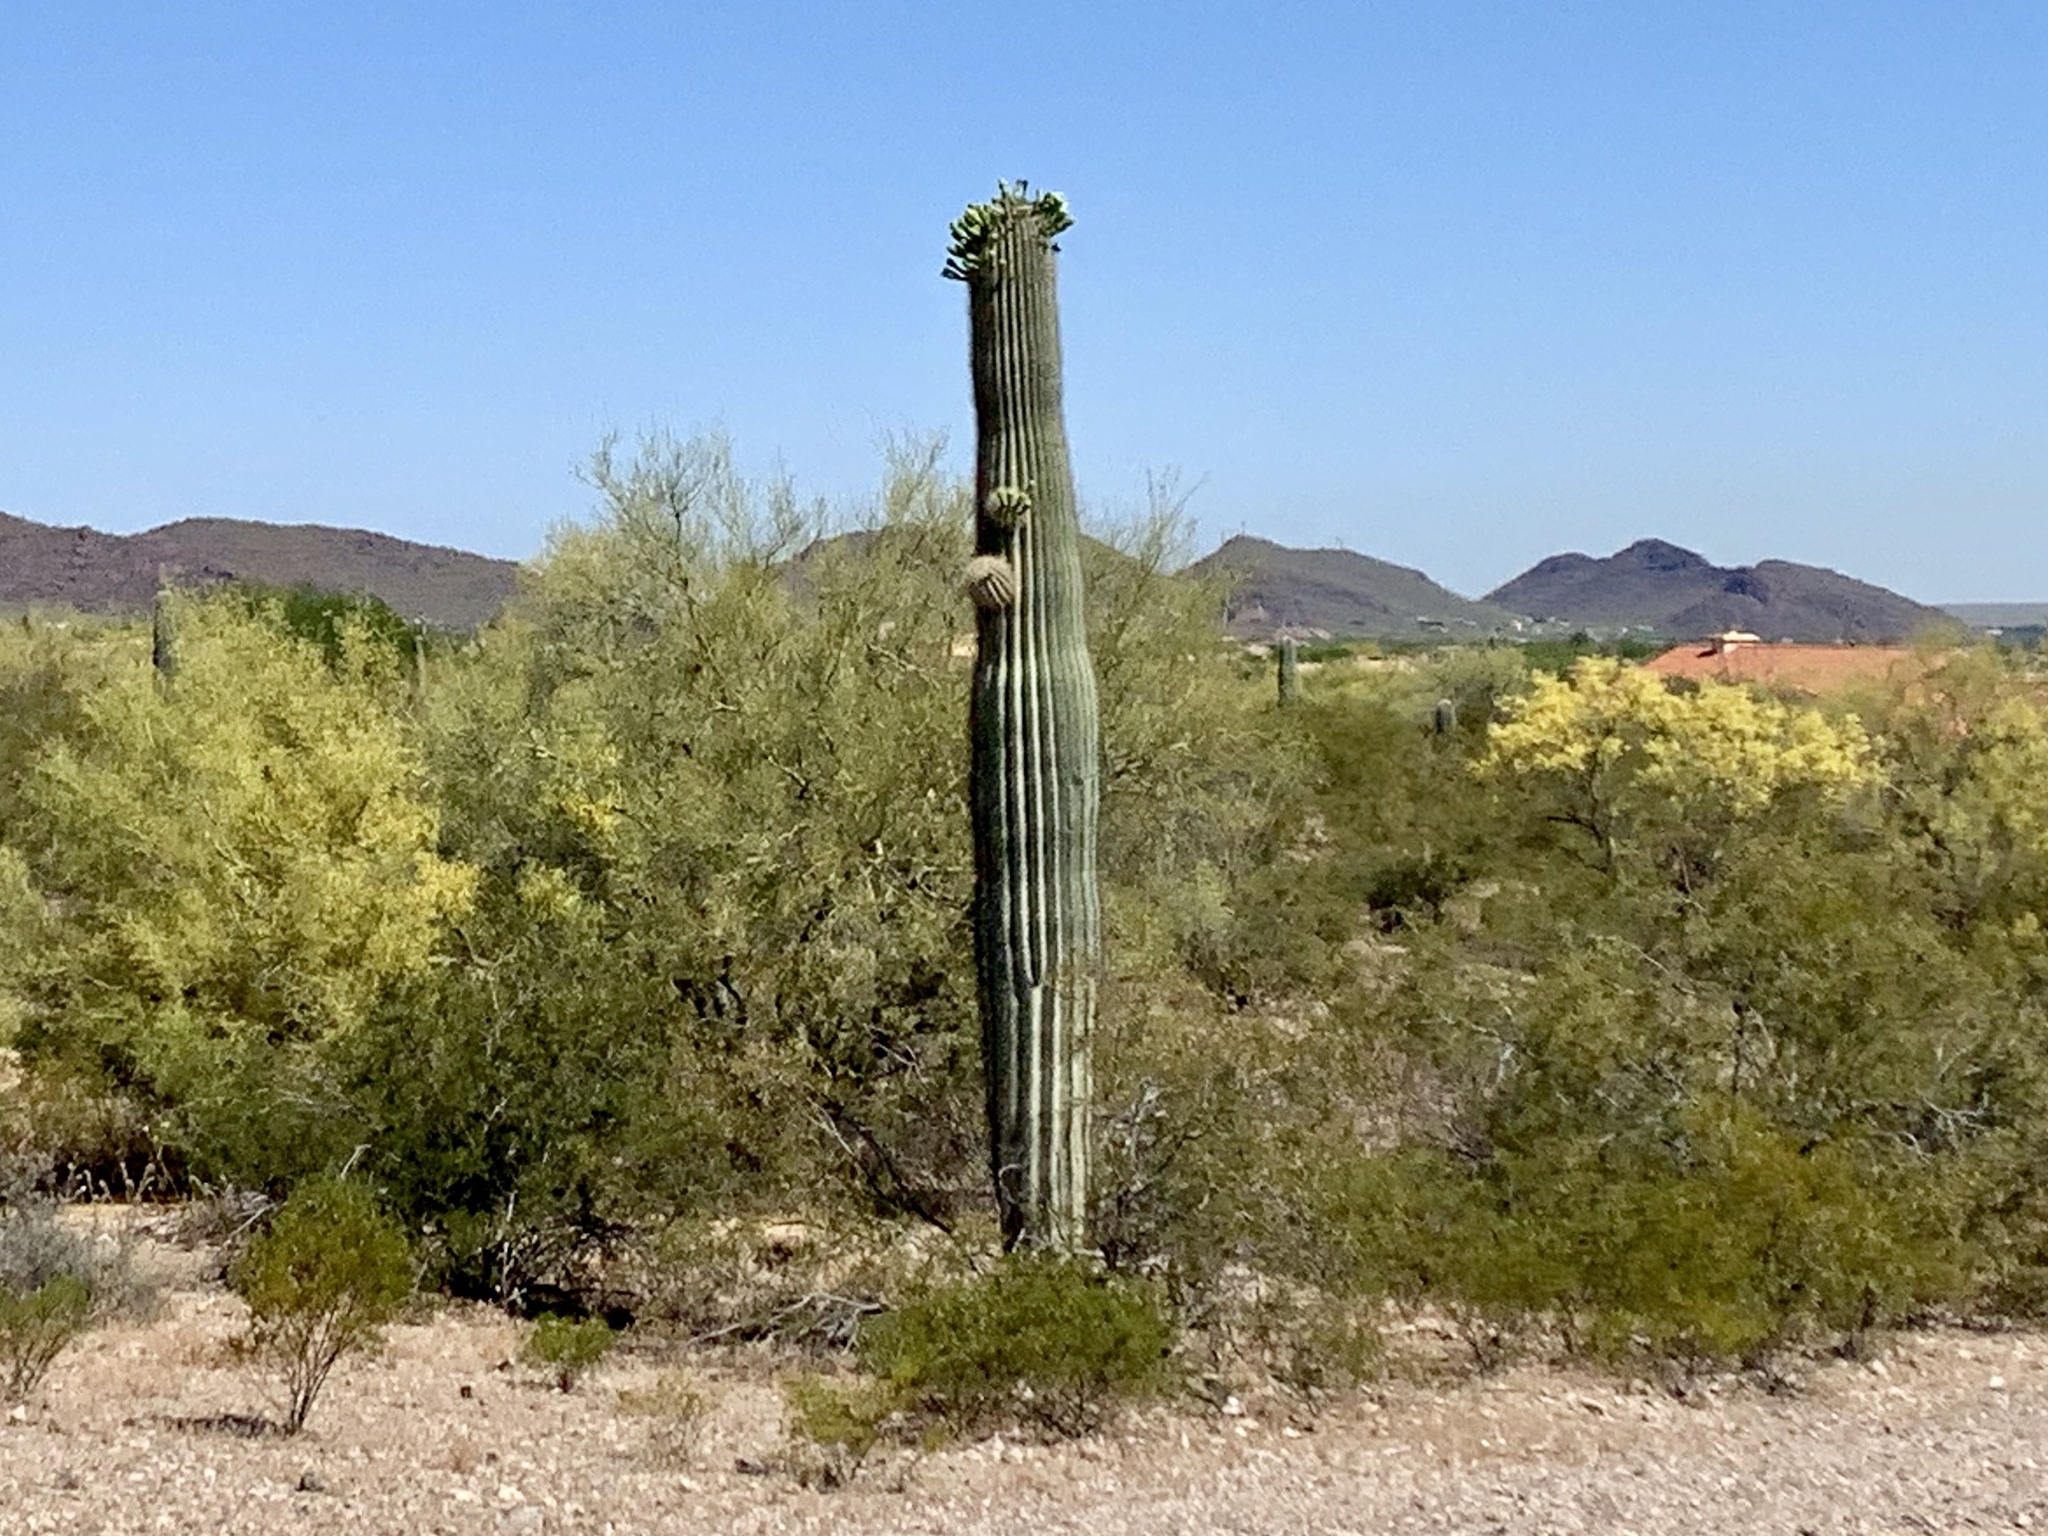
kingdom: Plantae
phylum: Tracheophyta
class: Magnoliopsida
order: Caryophyllales
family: Cactaceae
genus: Carnegiea
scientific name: Carnegiea gigantea
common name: Saguaro
